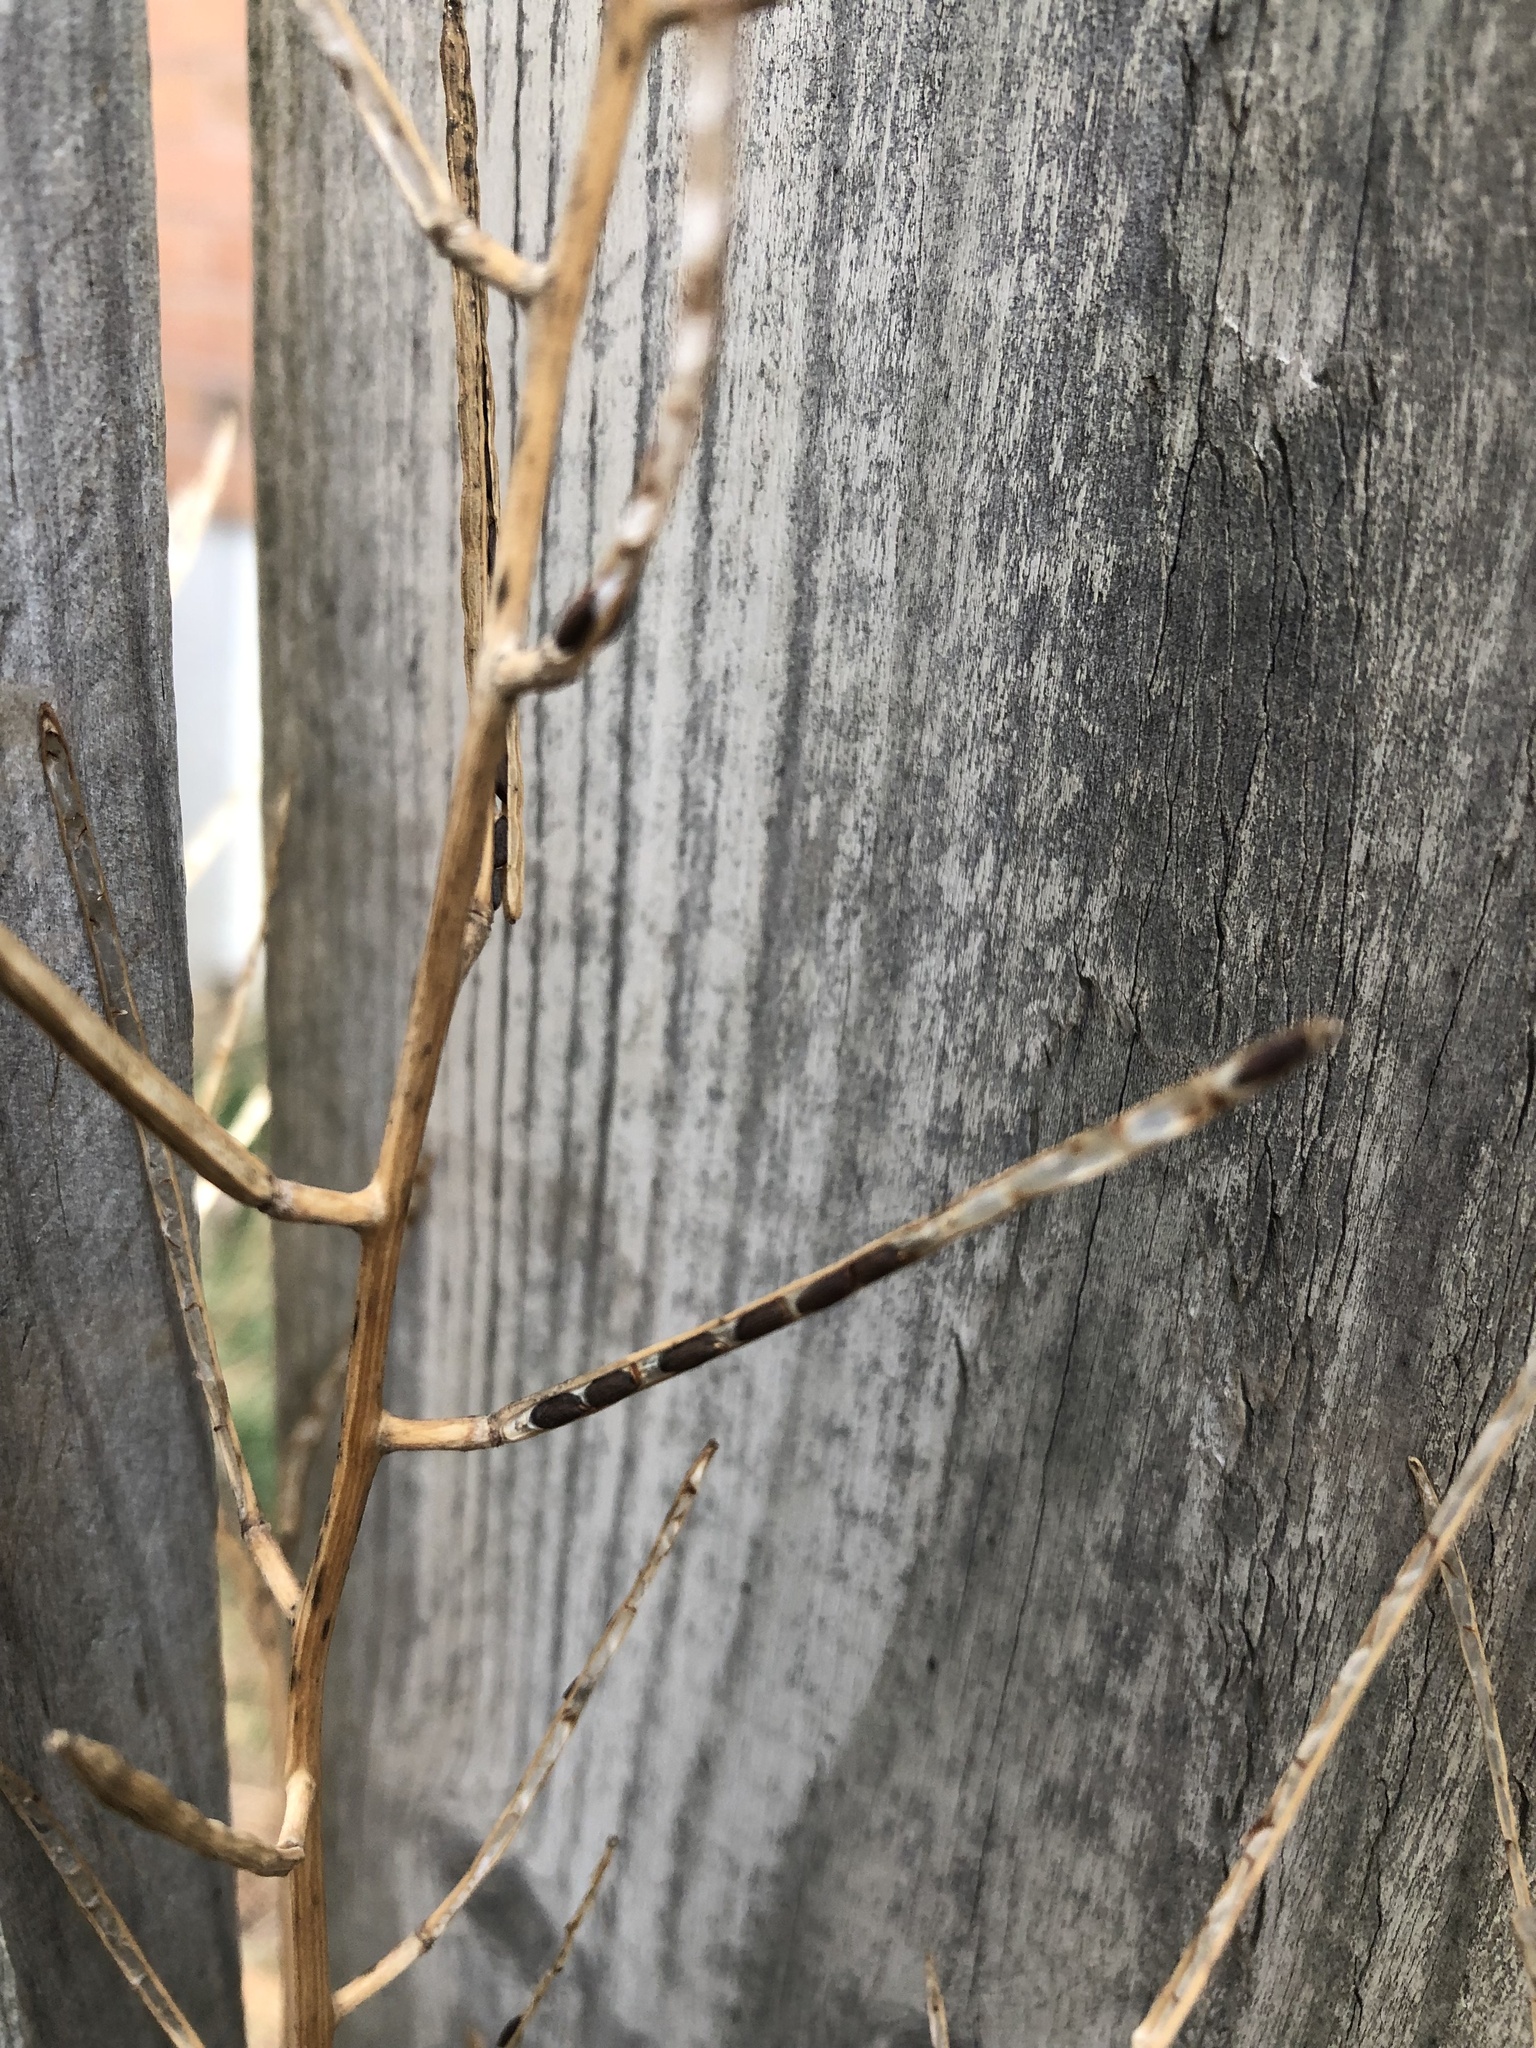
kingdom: Plantae
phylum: Tracheophyta
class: Magnoliopsida
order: Brassicales
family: Brassicaceae
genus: Alliaria
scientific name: Alliaria petiolata
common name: Garlic mustard
